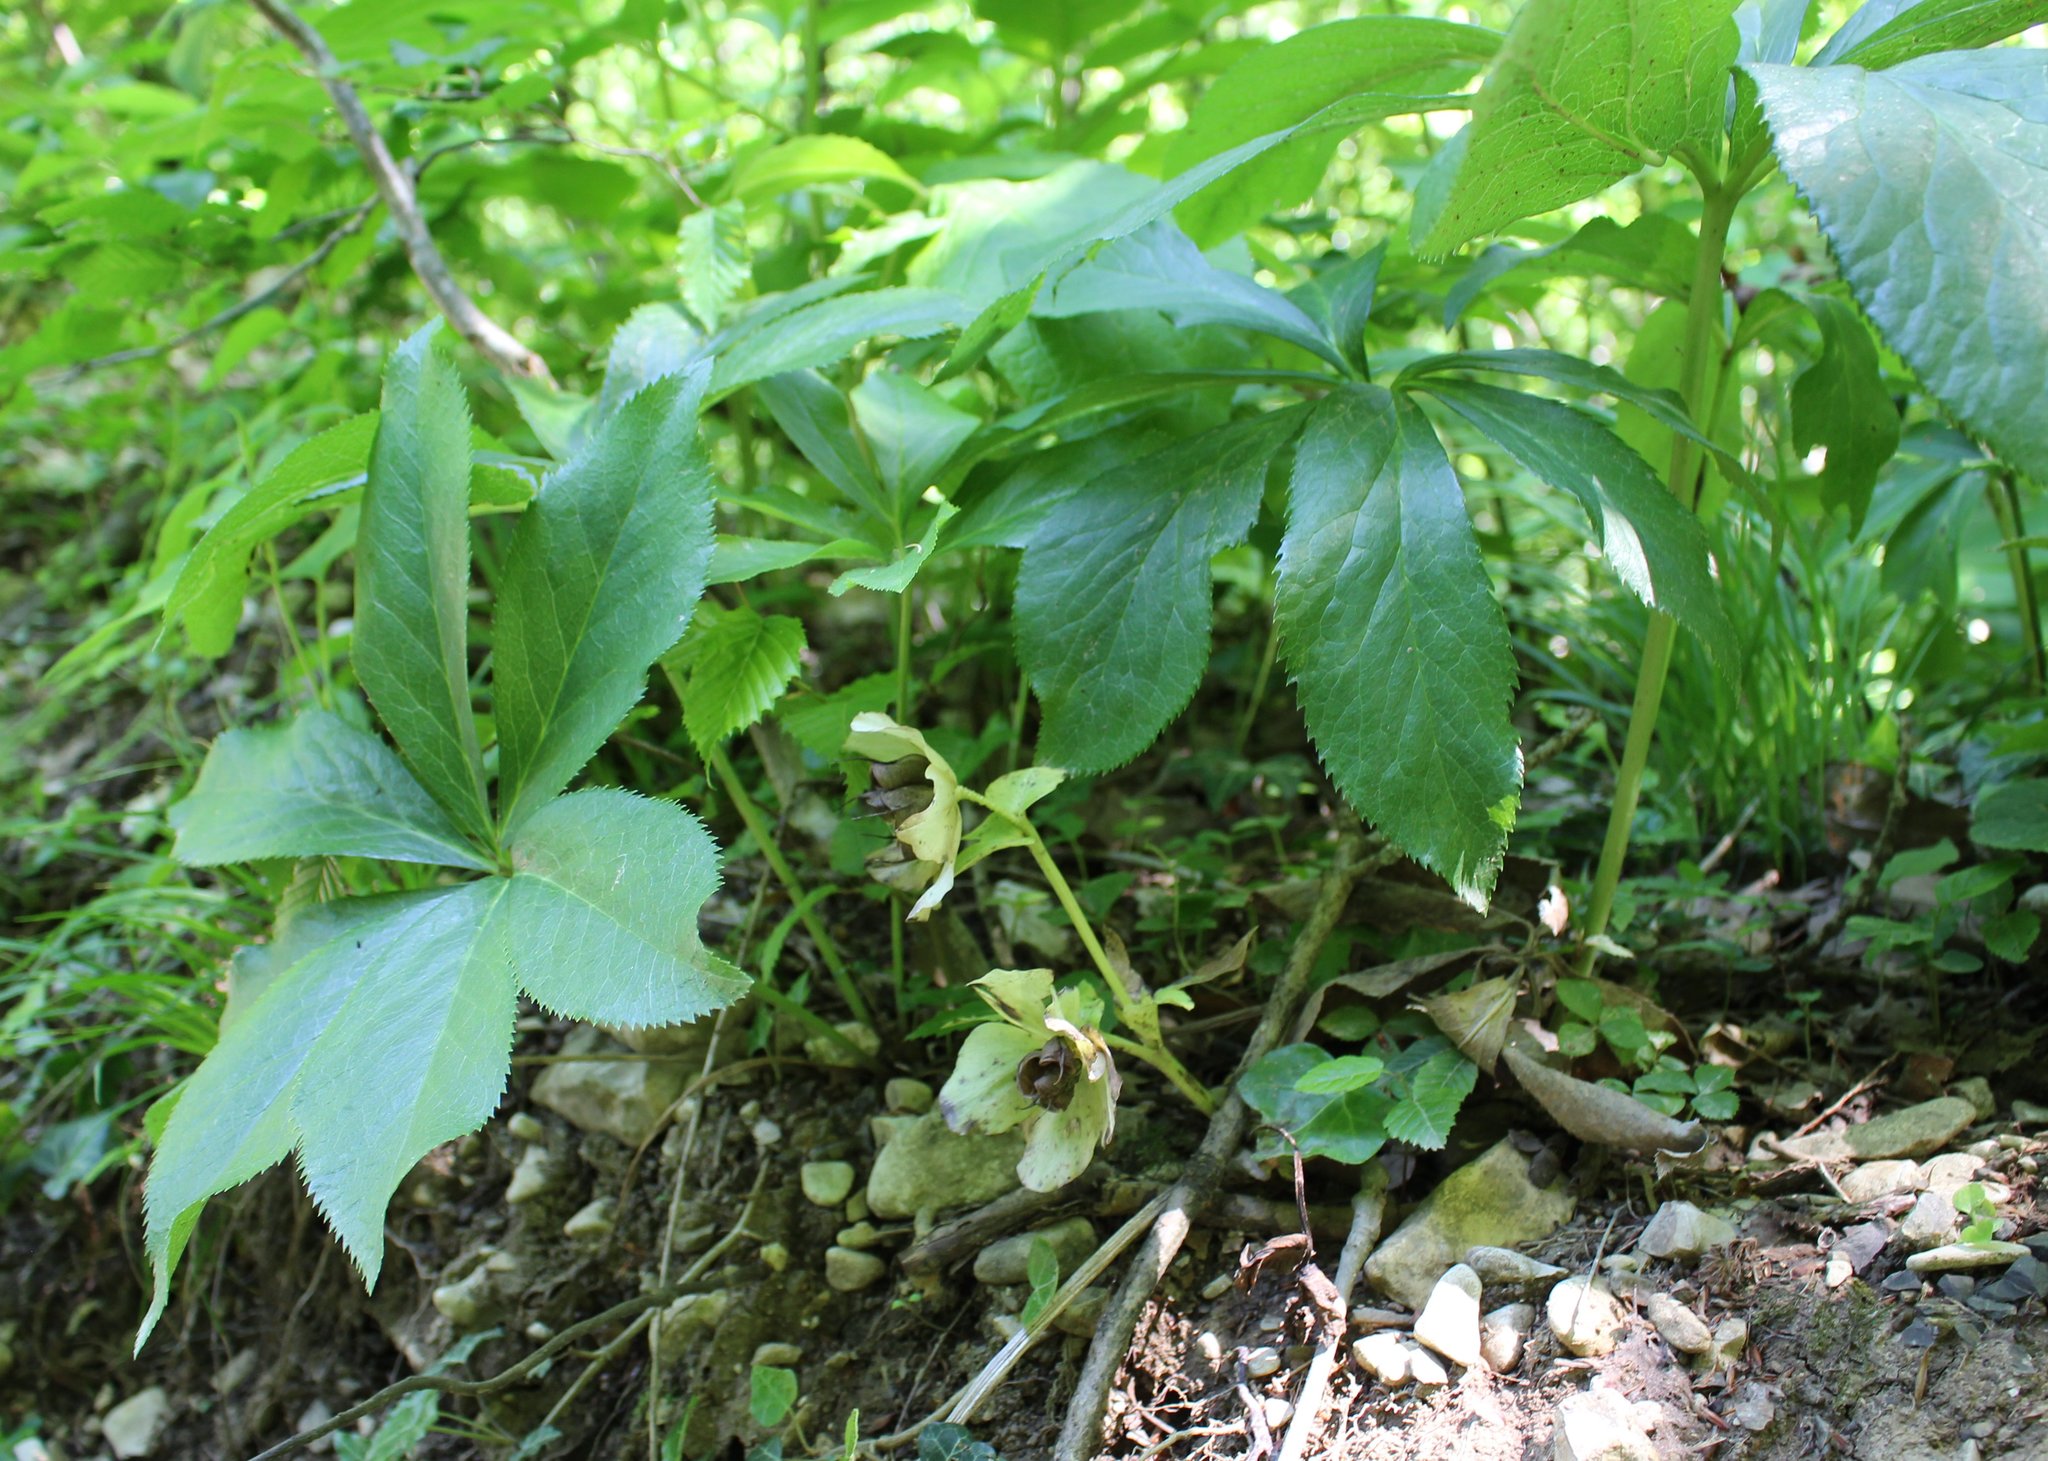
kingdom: Plantae
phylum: Tracheophyta
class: Magnoliopsida
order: Ranunculales
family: Ranunculaceae
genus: Helleborus
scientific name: Helleborus orientalis
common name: Lenten-rose
